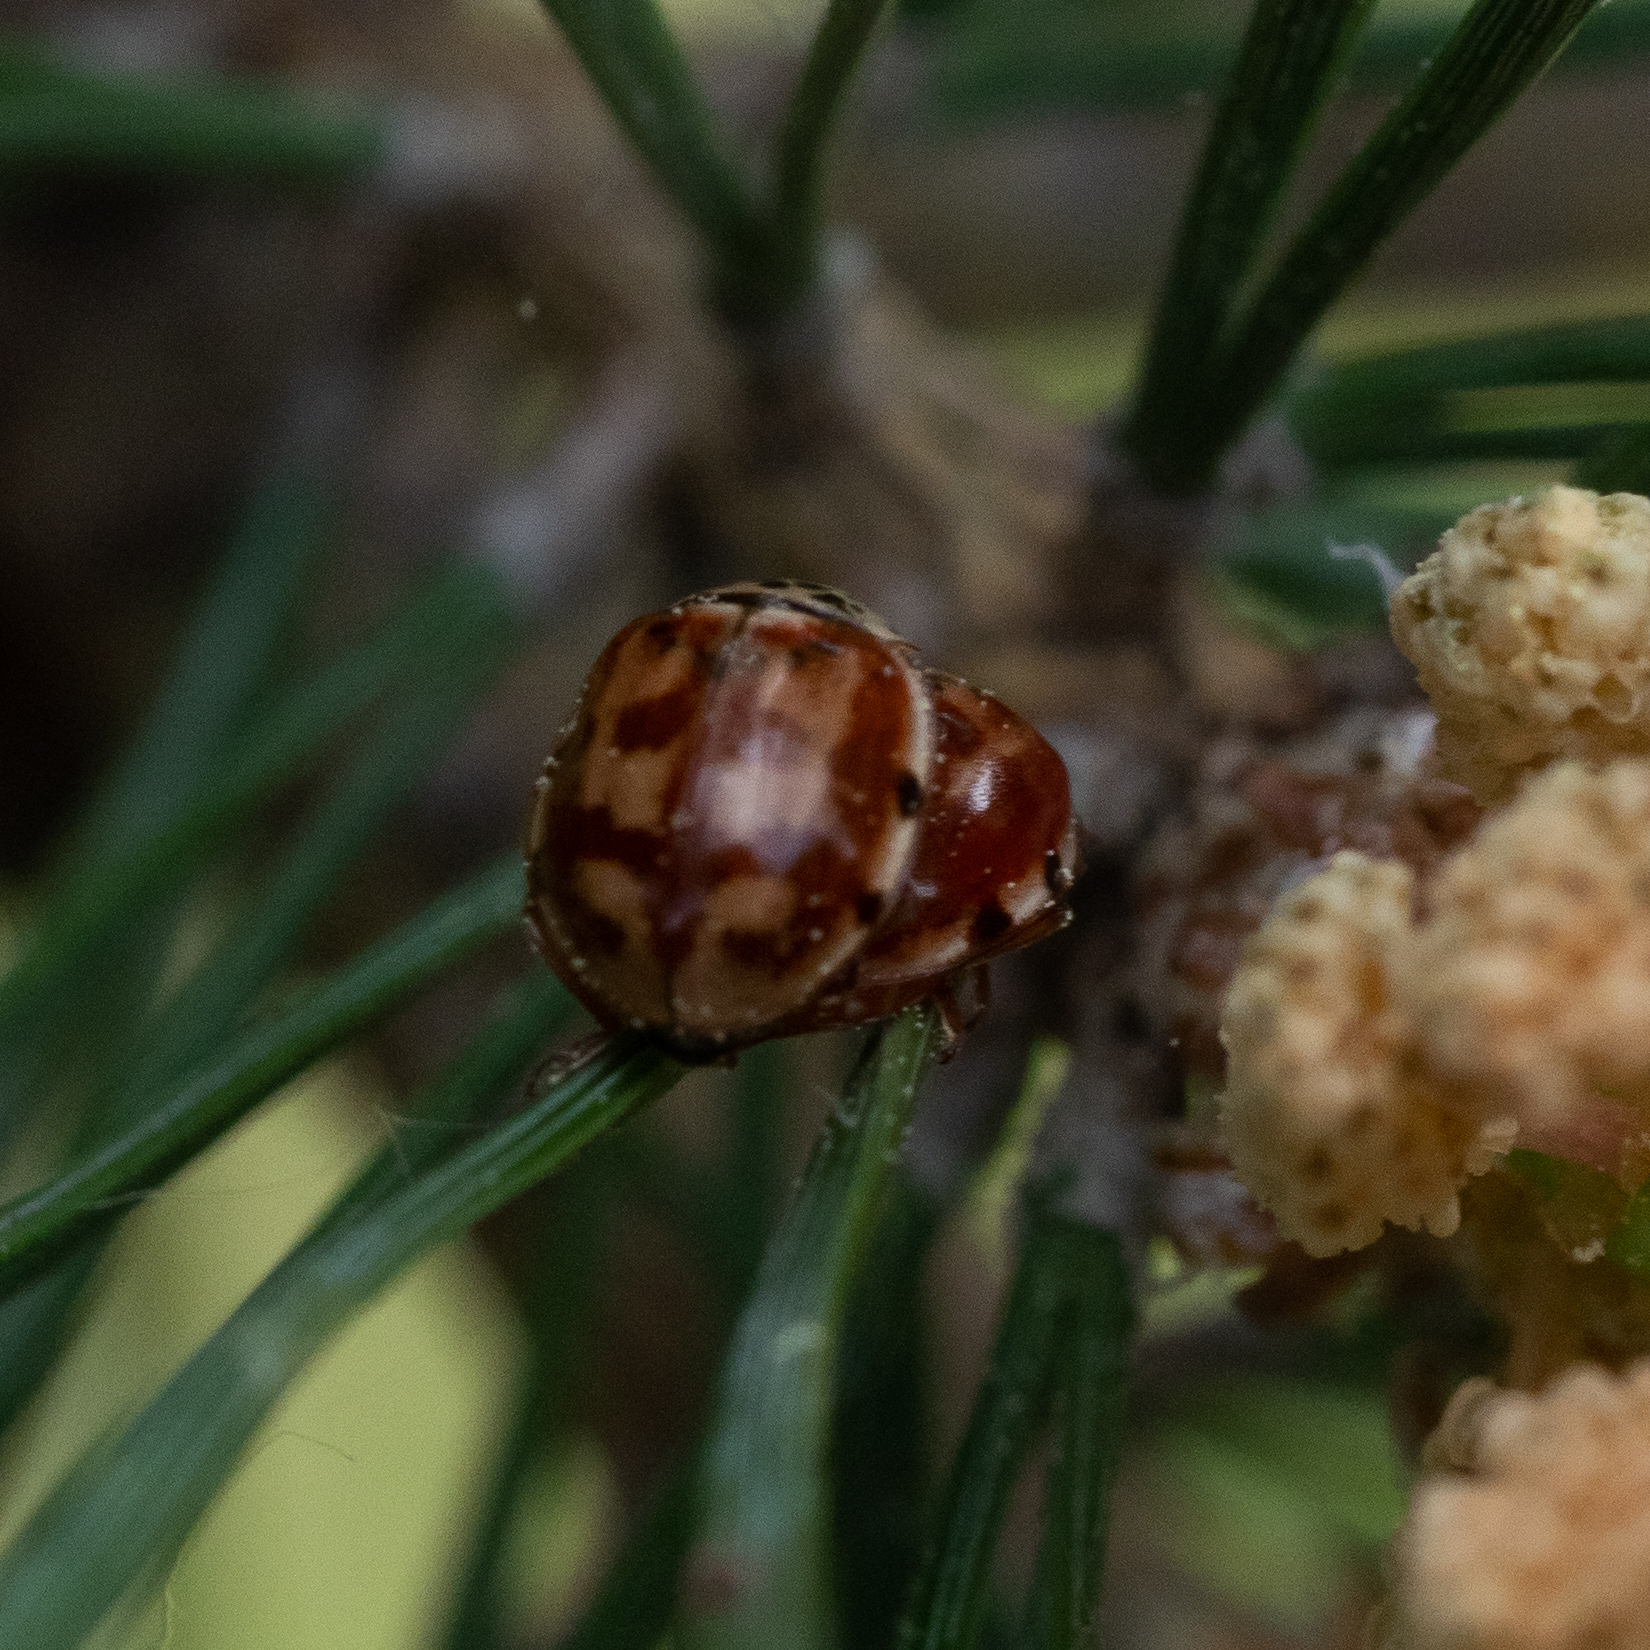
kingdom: Animalia
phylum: Arthropoda
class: Insecta
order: Coleoptera
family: Coccinellidae
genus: Harmonia
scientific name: Harmonia quadripunctata
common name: Cream-streaked ladybird
